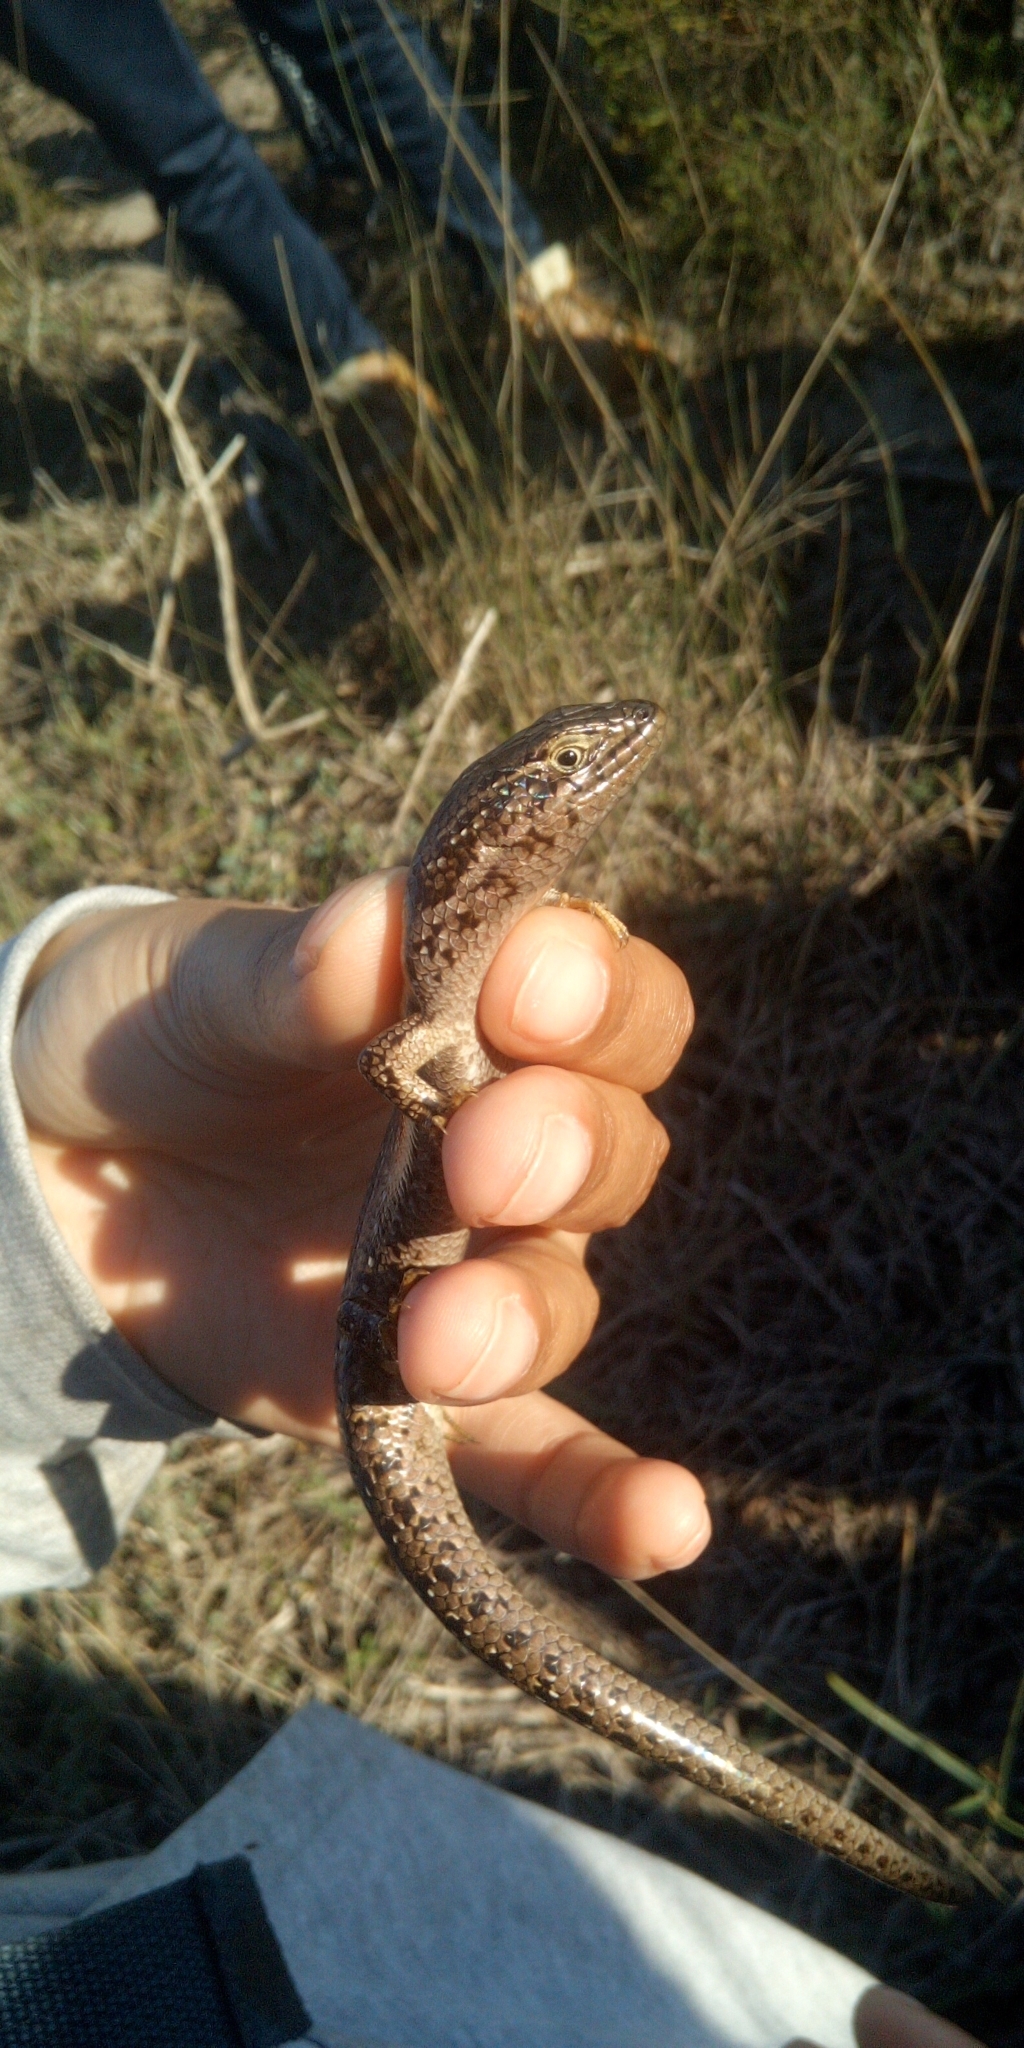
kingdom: Animalia
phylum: Chordata
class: Squamata
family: Scincidae
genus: Trachylepis
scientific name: Trachylepis capensis
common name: Cape skink
